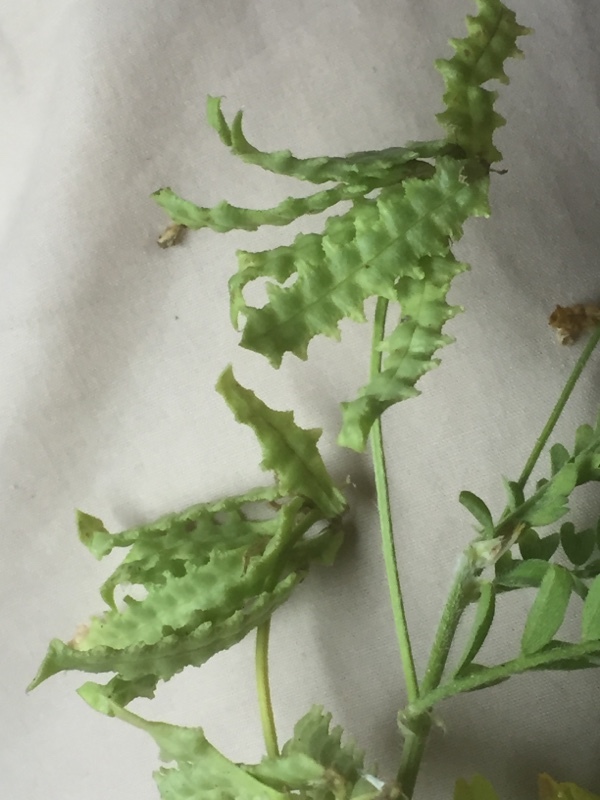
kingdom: Plantae
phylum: Tracheophyta
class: Magnoliopsida
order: Fabales
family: Fabaceae
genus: Biserrula
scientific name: Biserrula pelecinus
